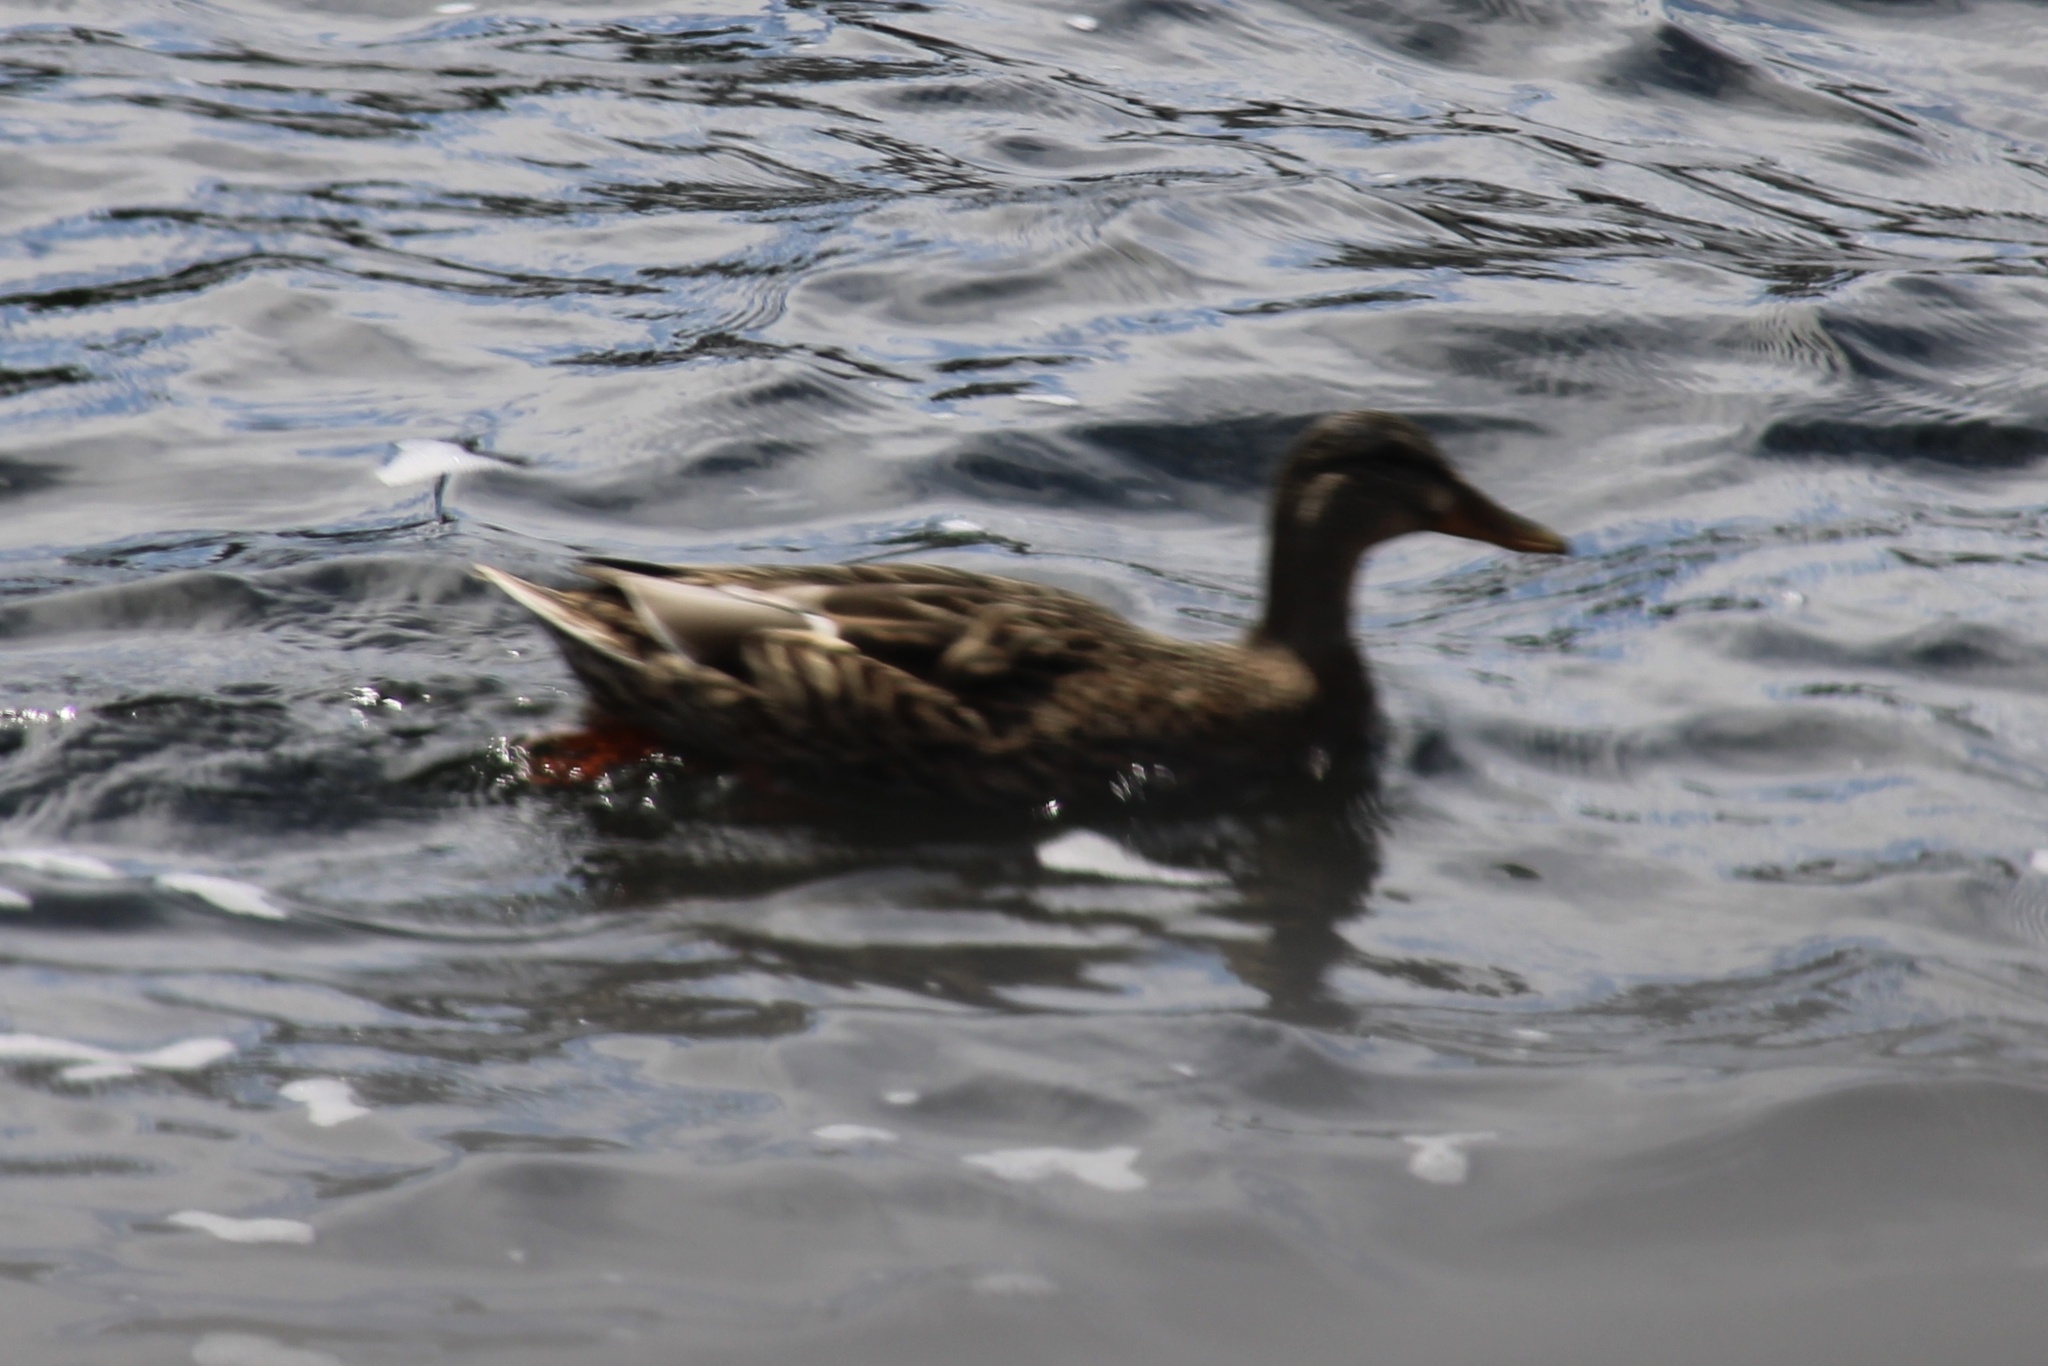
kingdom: Animalia
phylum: Chordata
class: Aves
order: Anseriformes
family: Anatidae
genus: Anas
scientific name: Anas platyrhynchos
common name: Mallard
